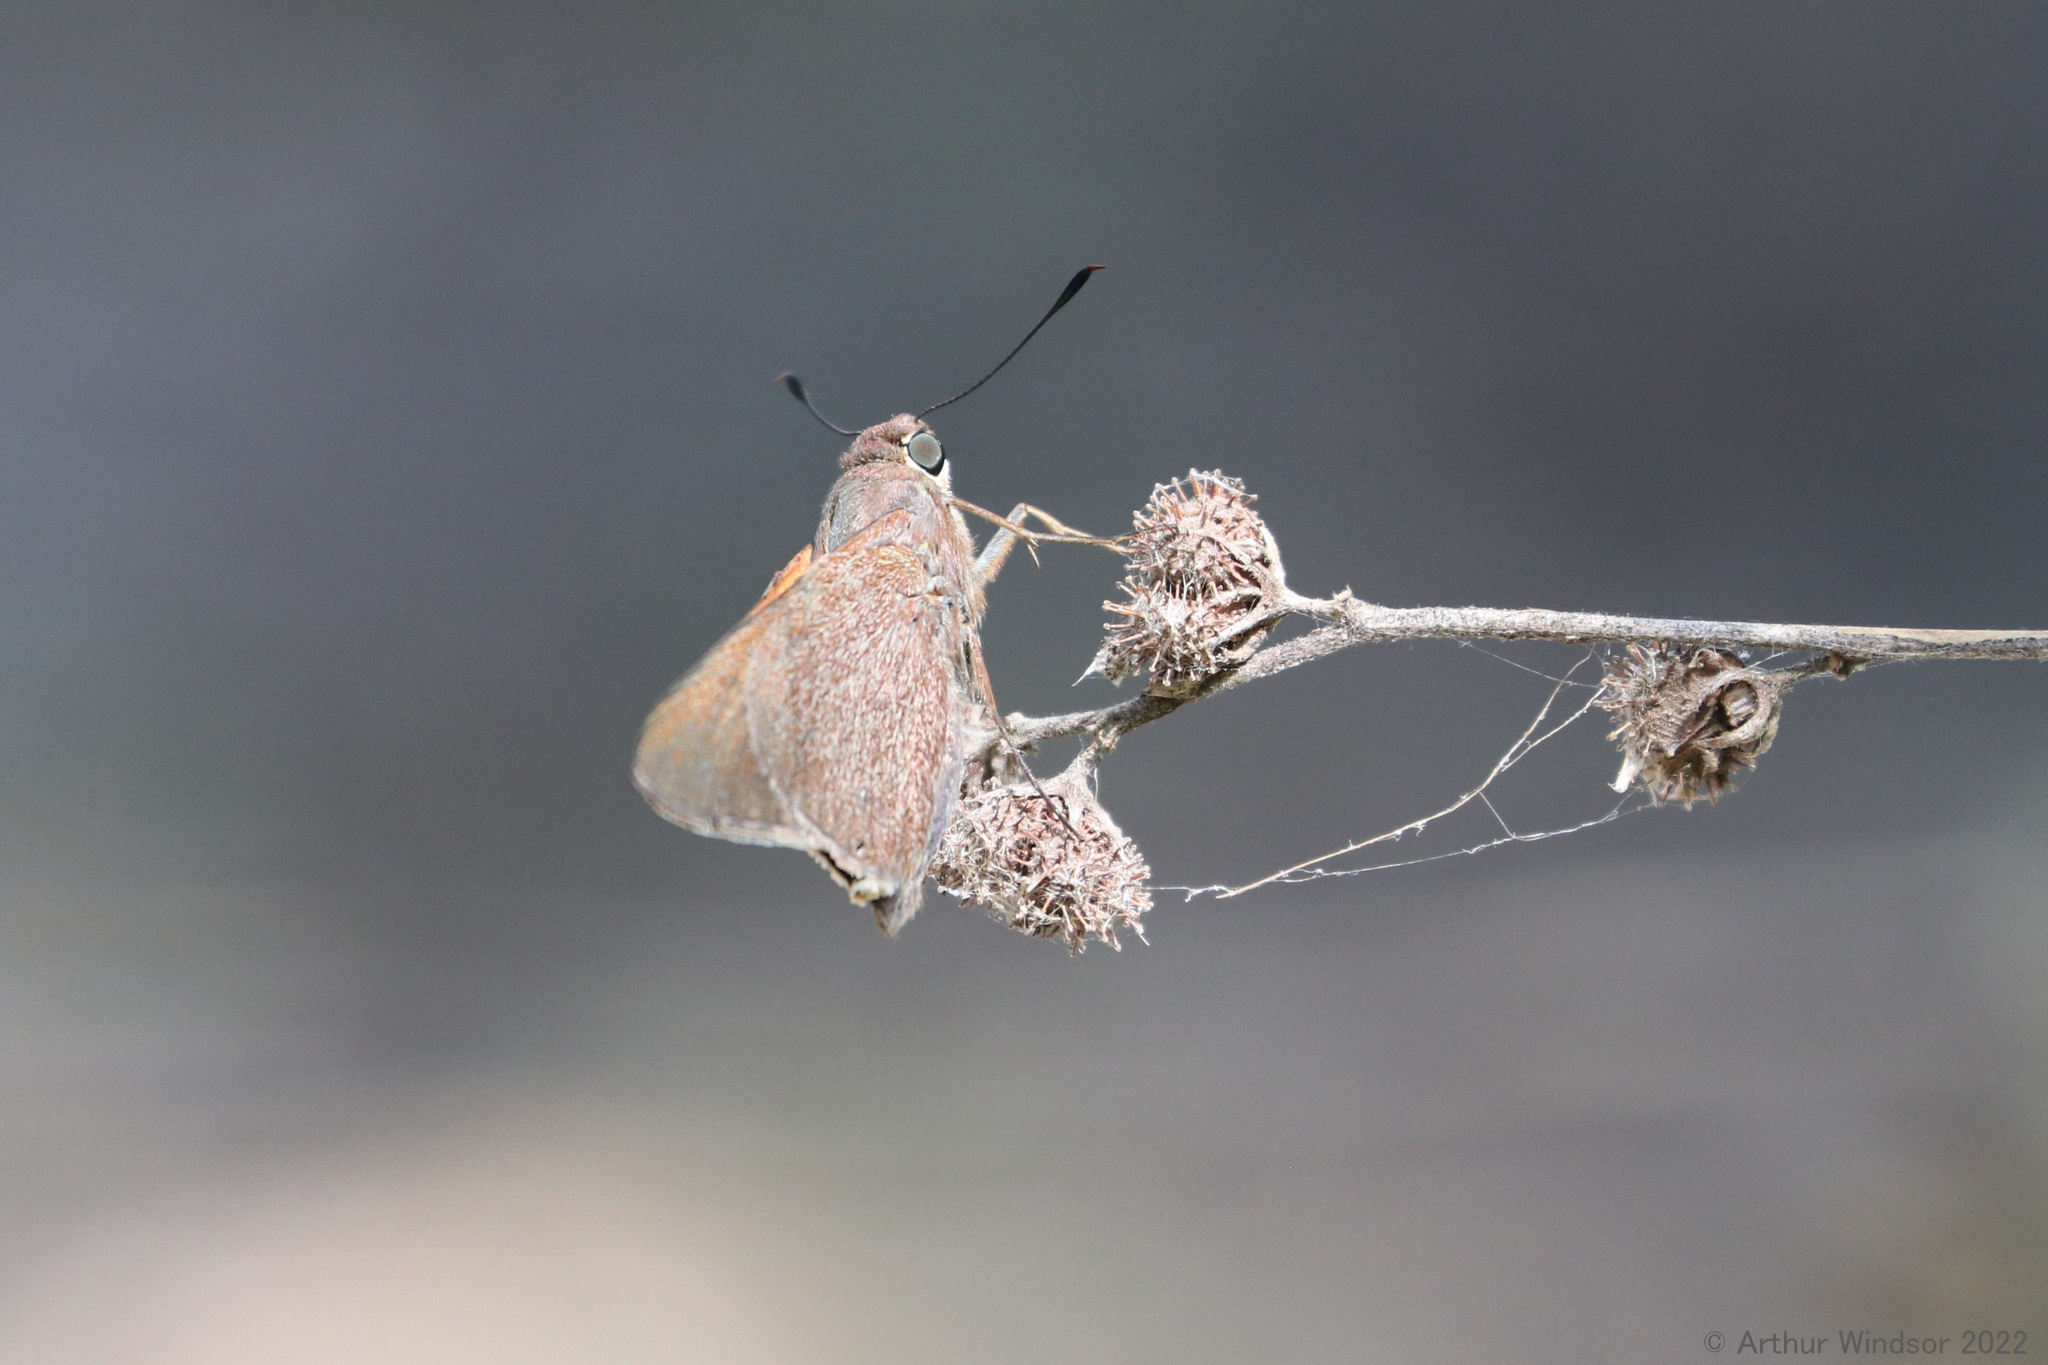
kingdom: Animalia
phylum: Arthropoda
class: Insecta
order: Lepidoptera
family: Hesperiidae
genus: Asbolis
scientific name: Asbolis capucinus
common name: Monk skipper
